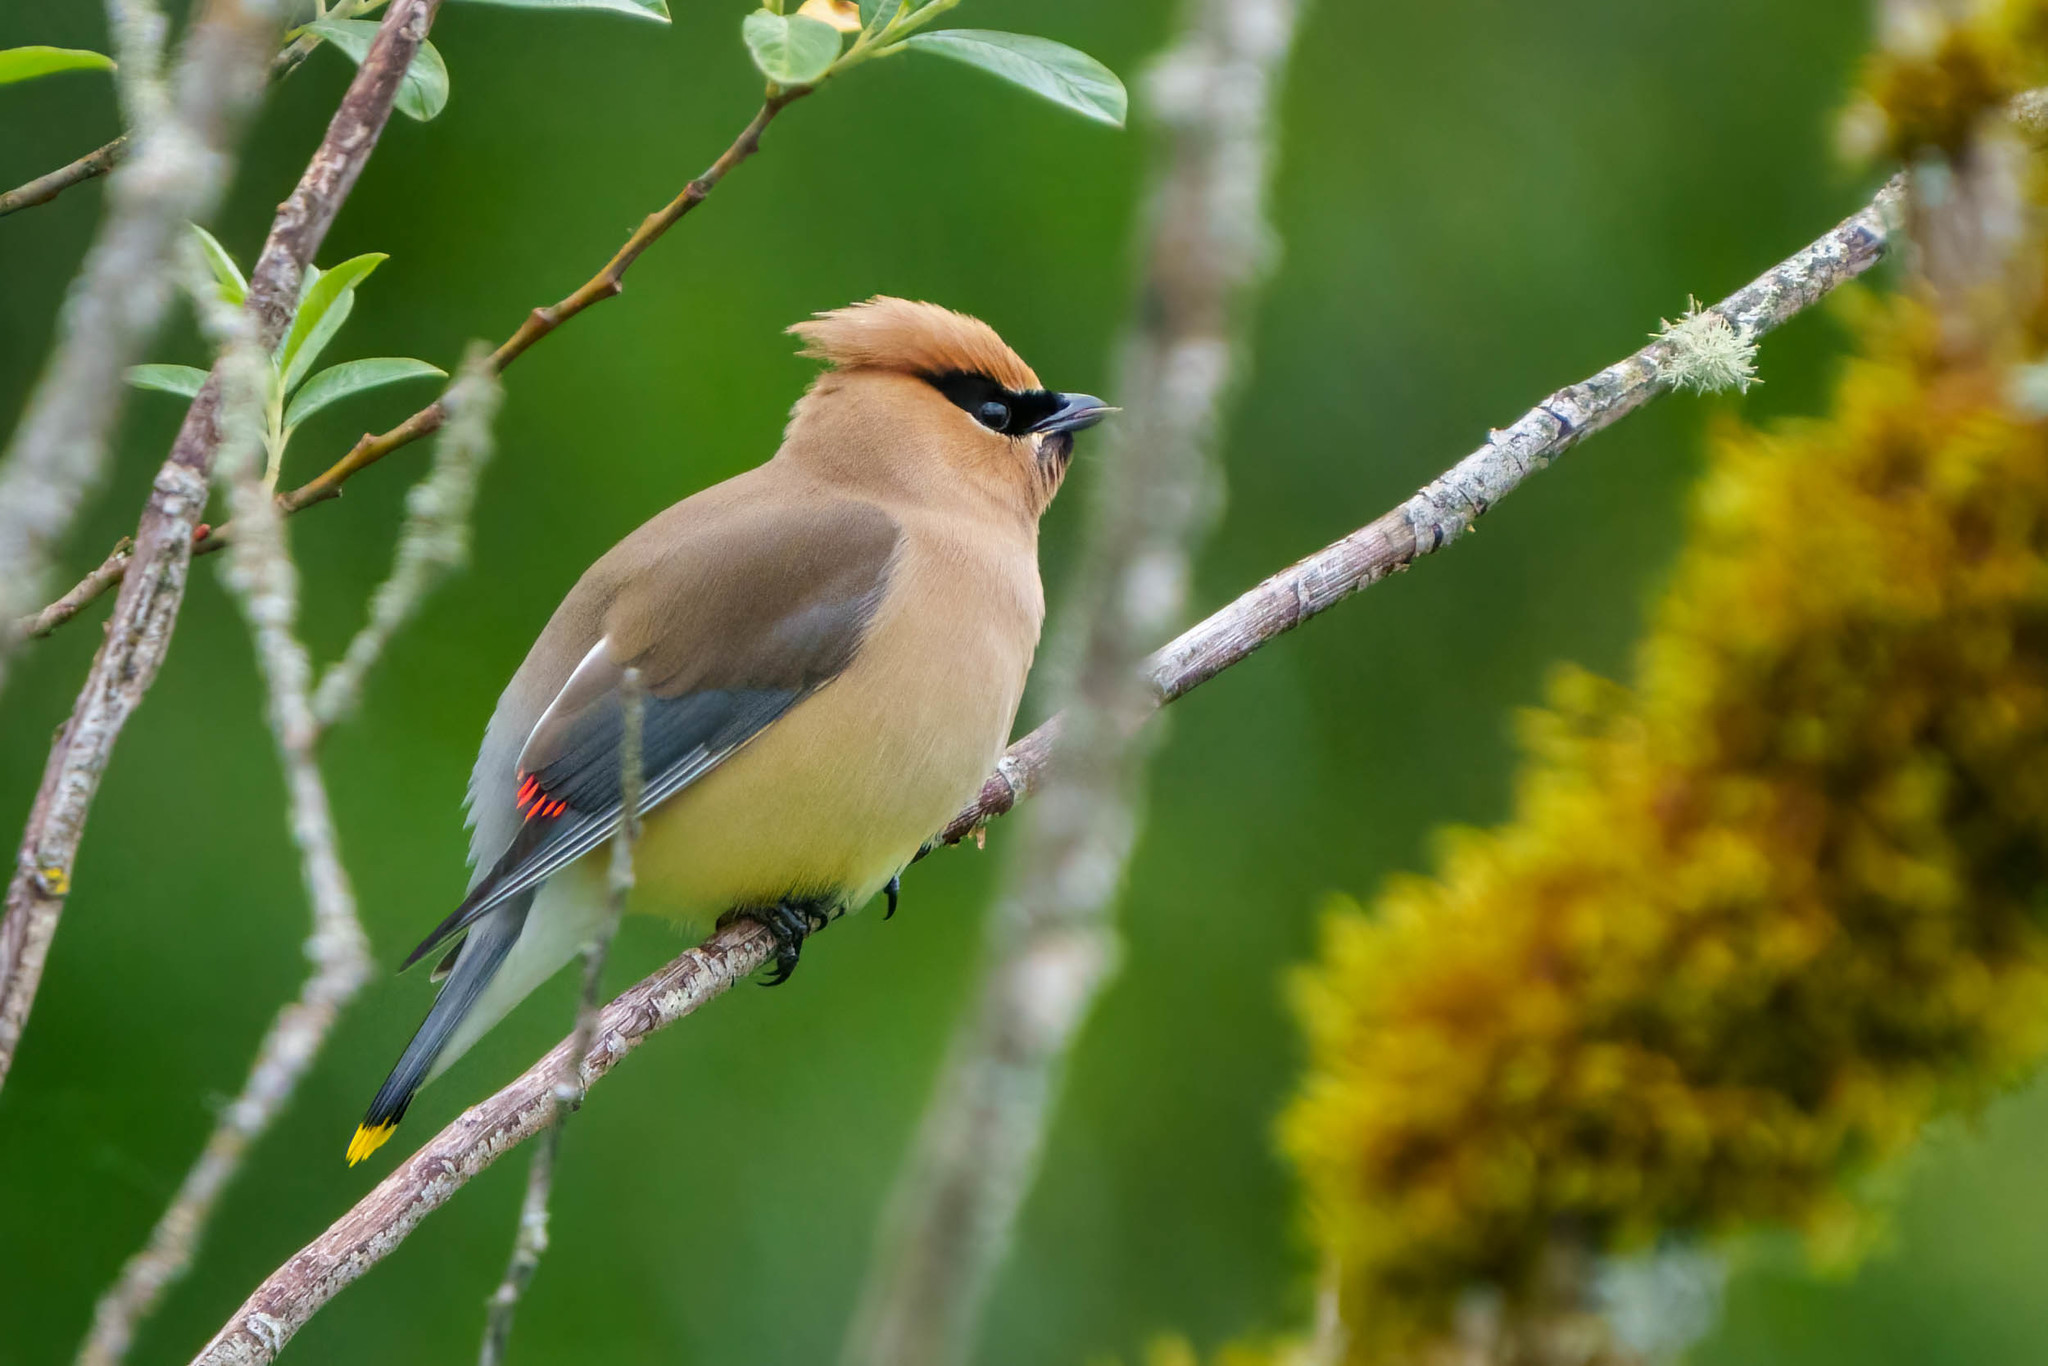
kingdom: Animalia
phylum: Chordata
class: Aves
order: Passeriformes
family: Bombycillidae
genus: Bombycilla
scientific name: Bombycilla cedrorum
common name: Cedar waxwing
